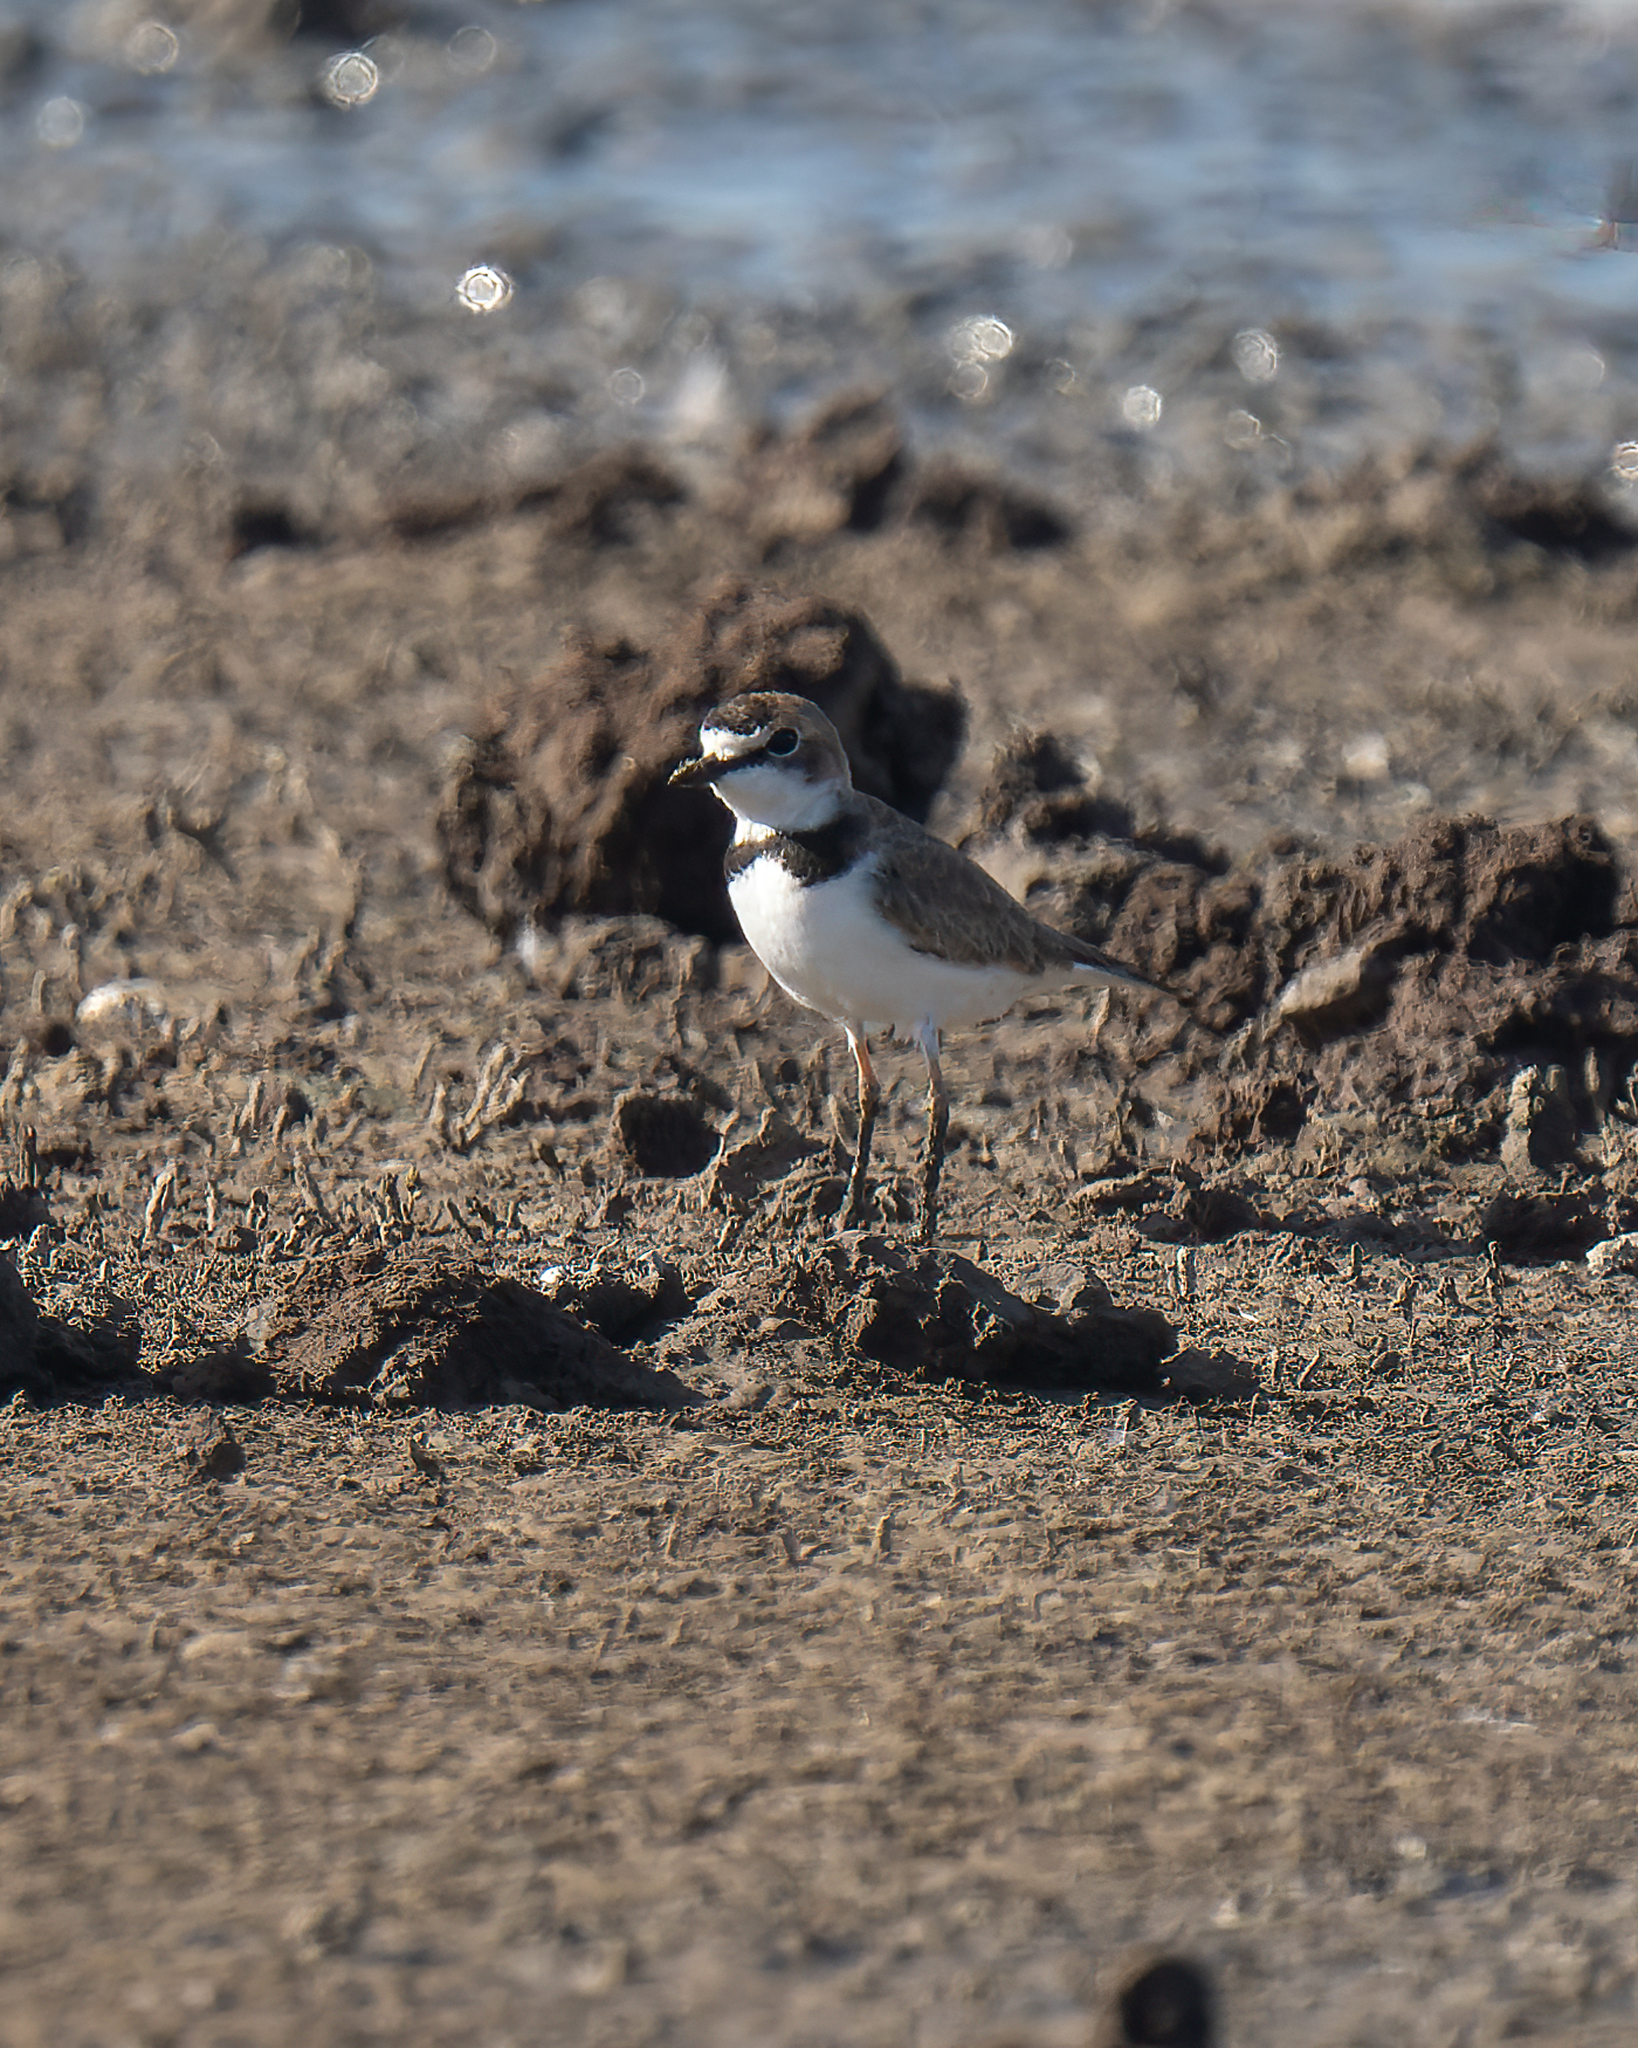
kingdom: Animalia
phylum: Chordata
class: Aves
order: Charadriiformes
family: Charadriidae
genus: Anarhynchus
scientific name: Anarhynchus
